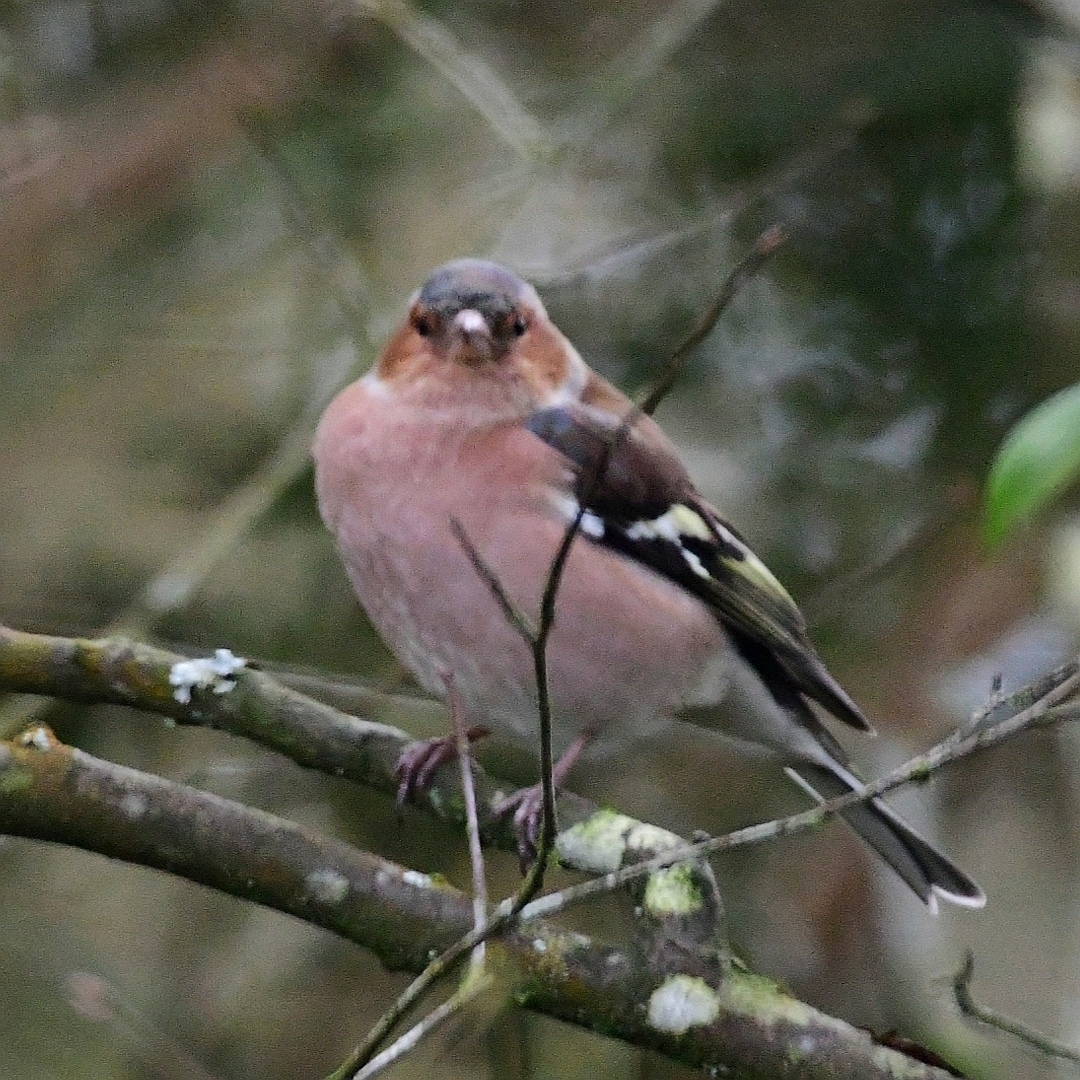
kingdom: Animalia
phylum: Chordata
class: Aves
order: Passeriformes
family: Fringillidae
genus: Fringilla
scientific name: Fringilla coelebs
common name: Common chaffinch
